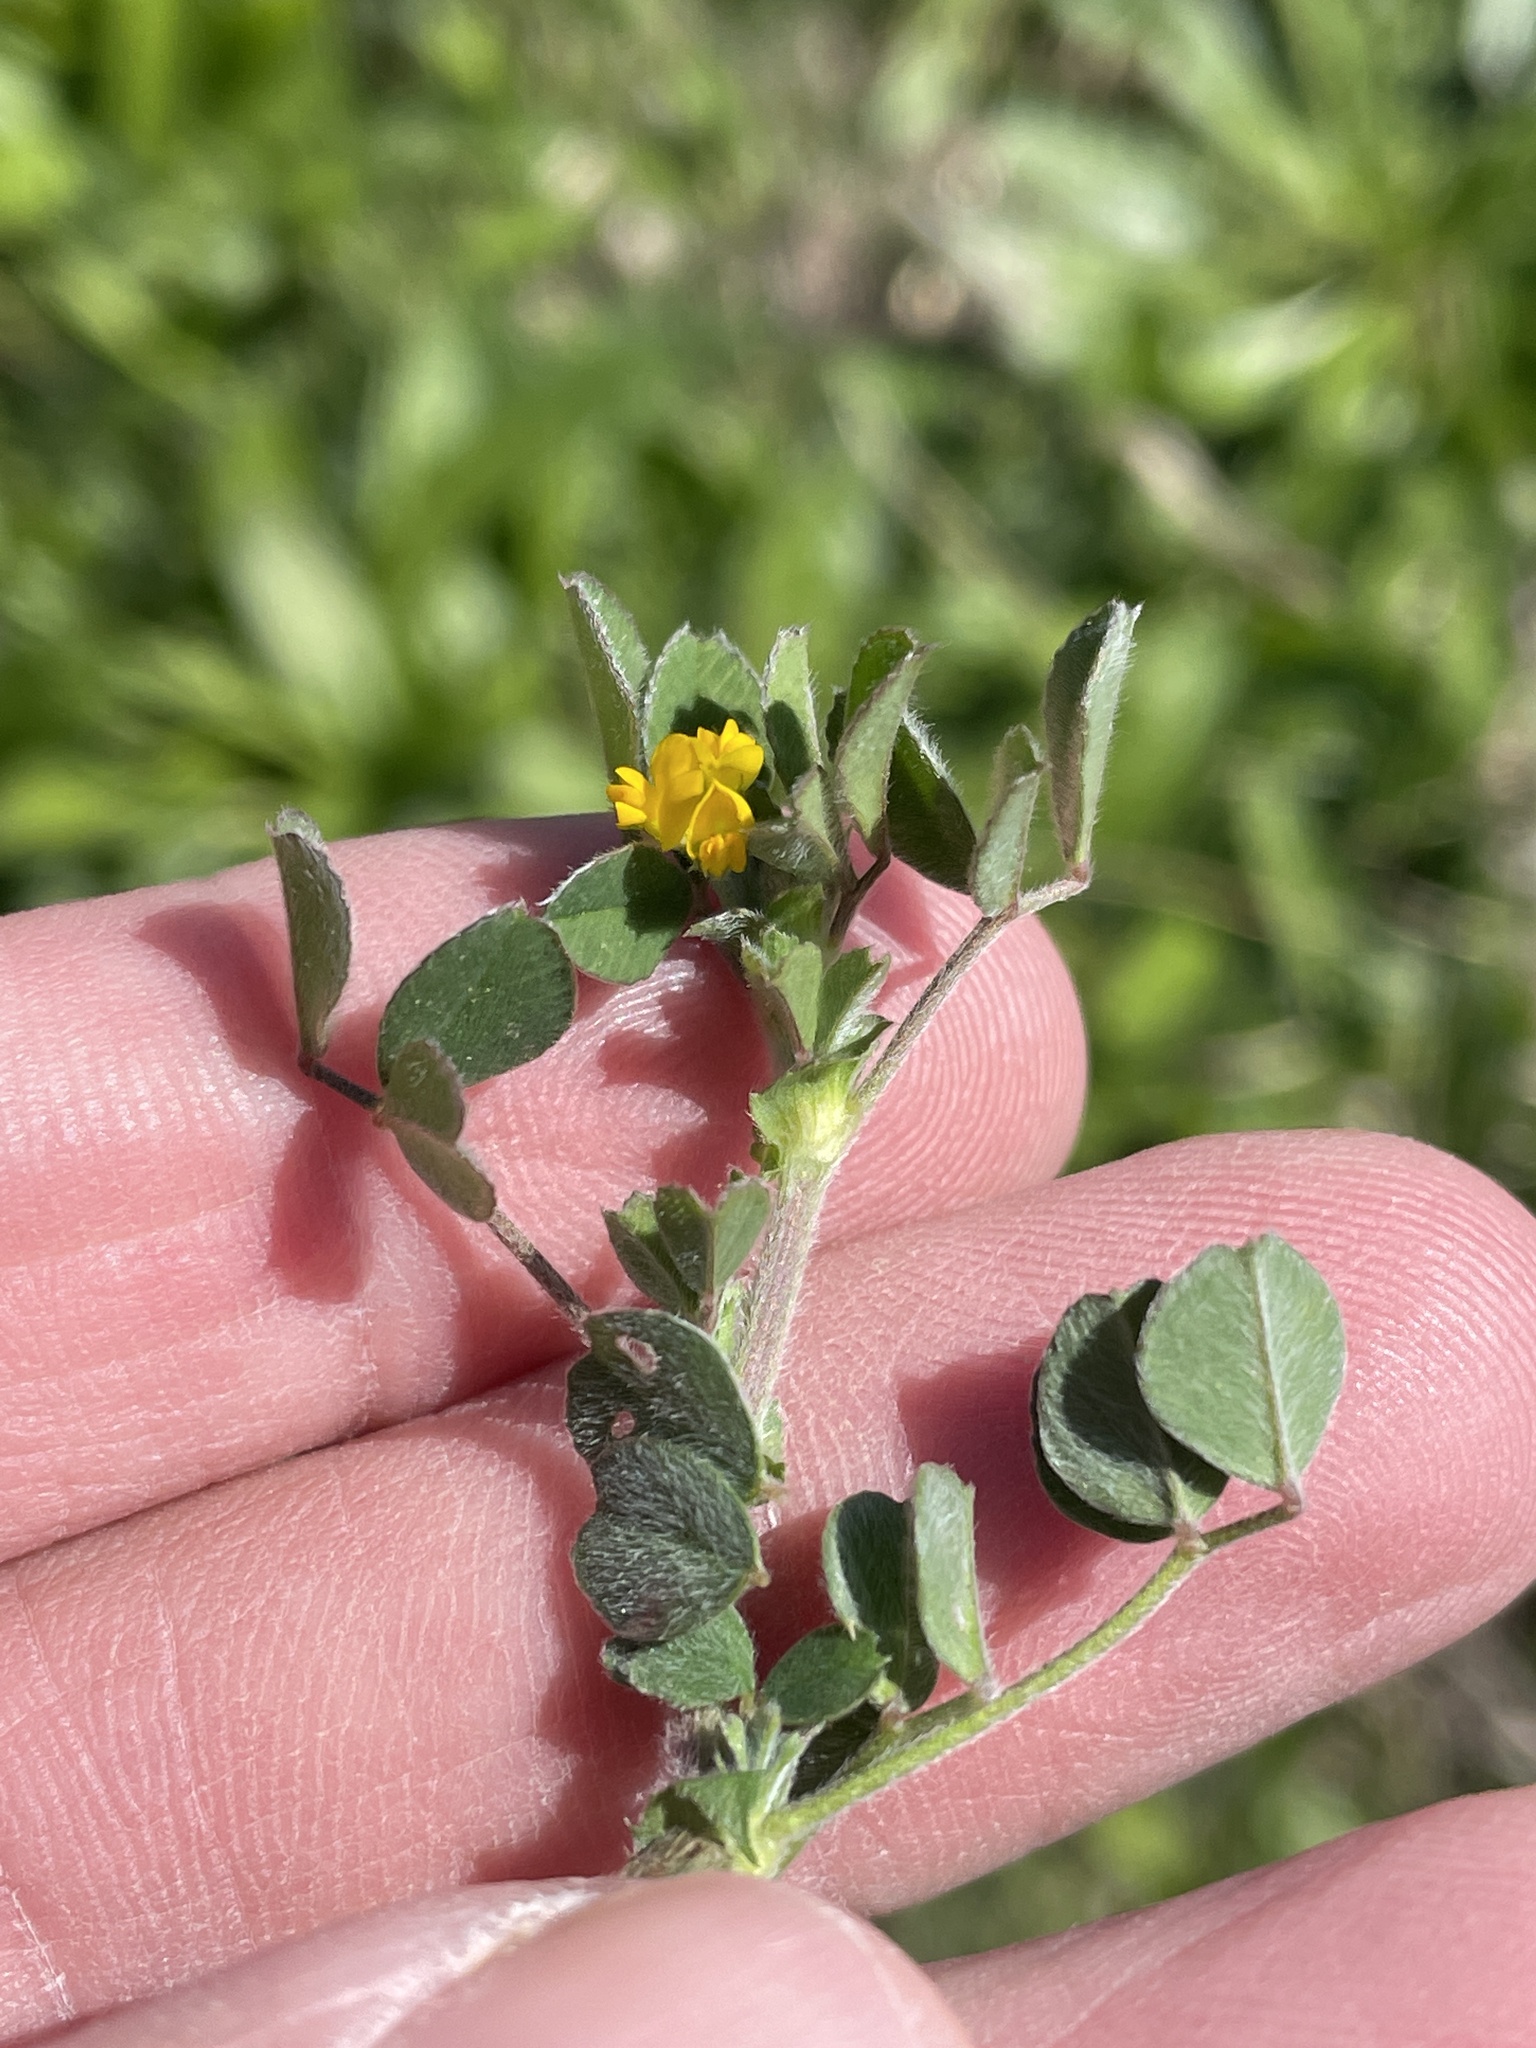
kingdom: Plantae
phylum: Tracheophyta
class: Magnoliopsida
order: Fabales
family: Fabaceae
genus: Medicago
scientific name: Medicago minima
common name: Little bur-clover
